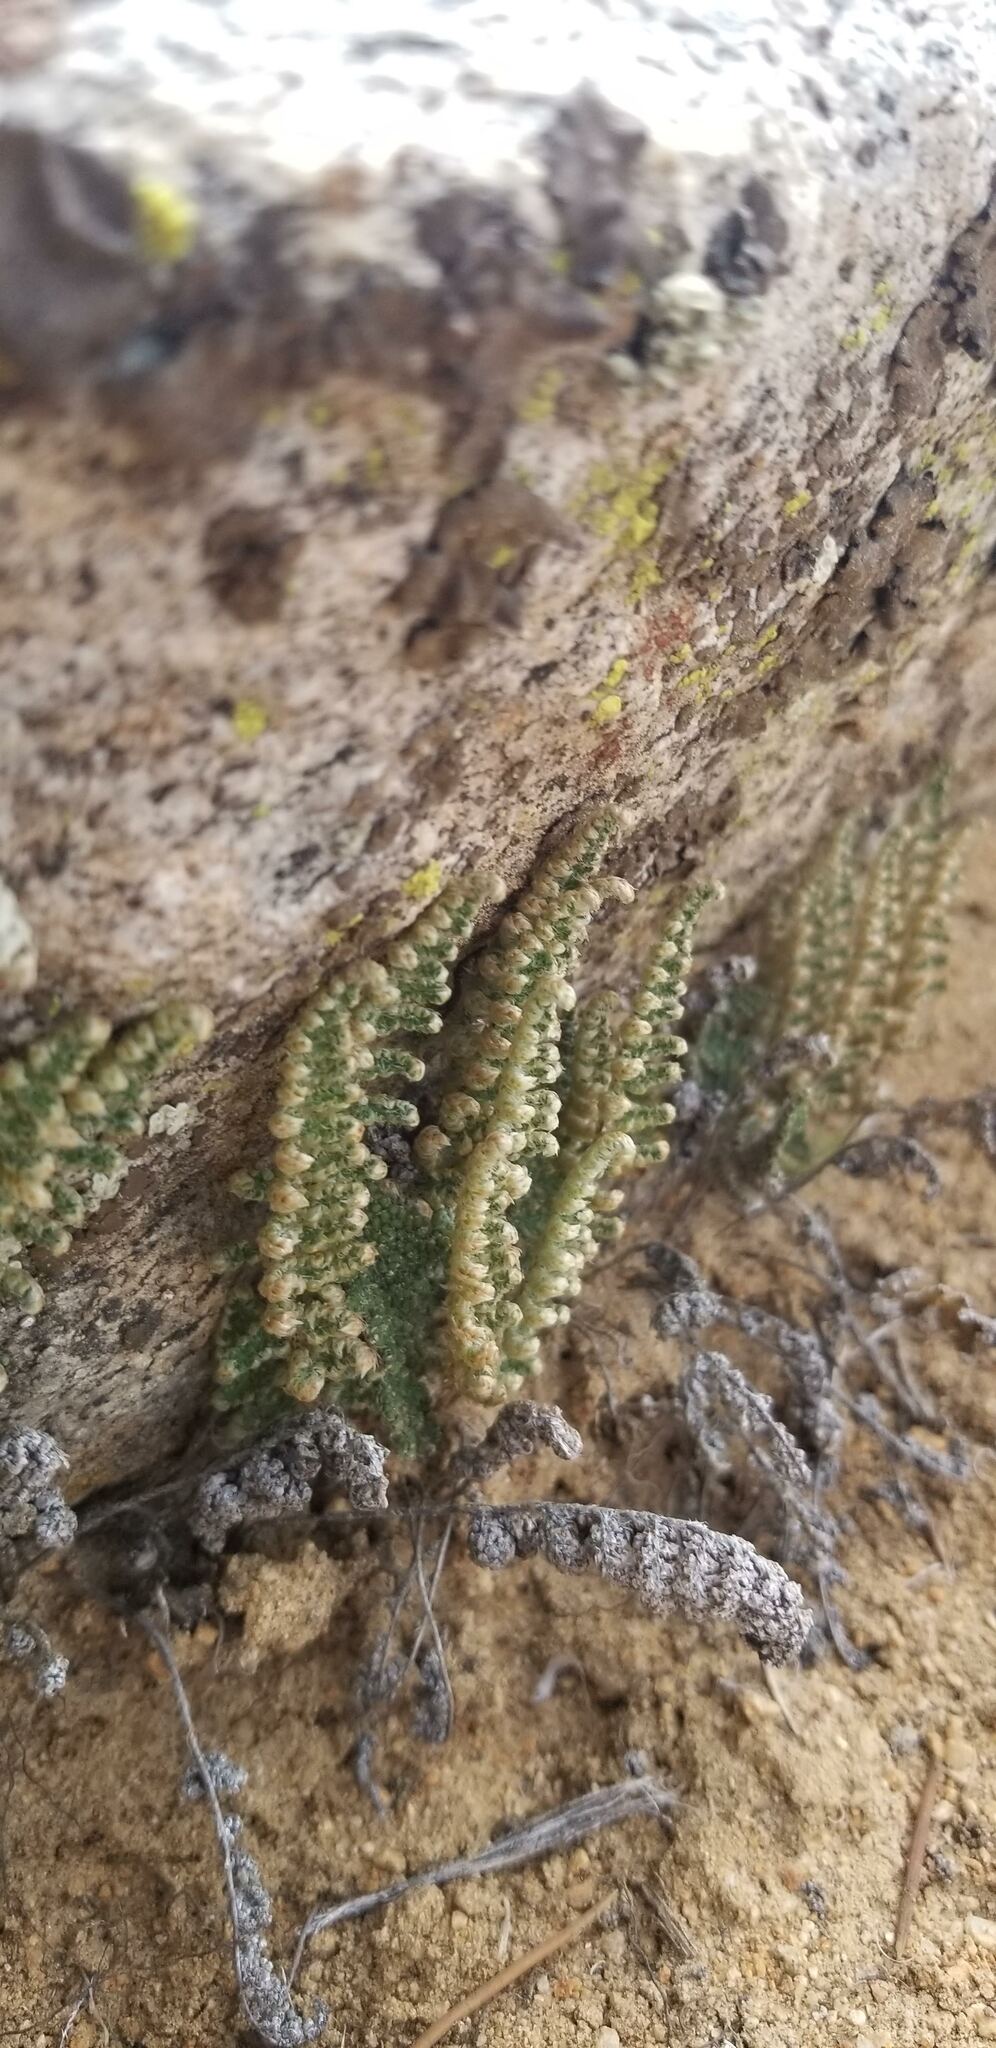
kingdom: Plantae
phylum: Tracheophyta
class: Polypodiopsida
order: Polypodiales
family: Pteridaceae
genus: Myriopteris
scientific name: Myriopteris covillei
